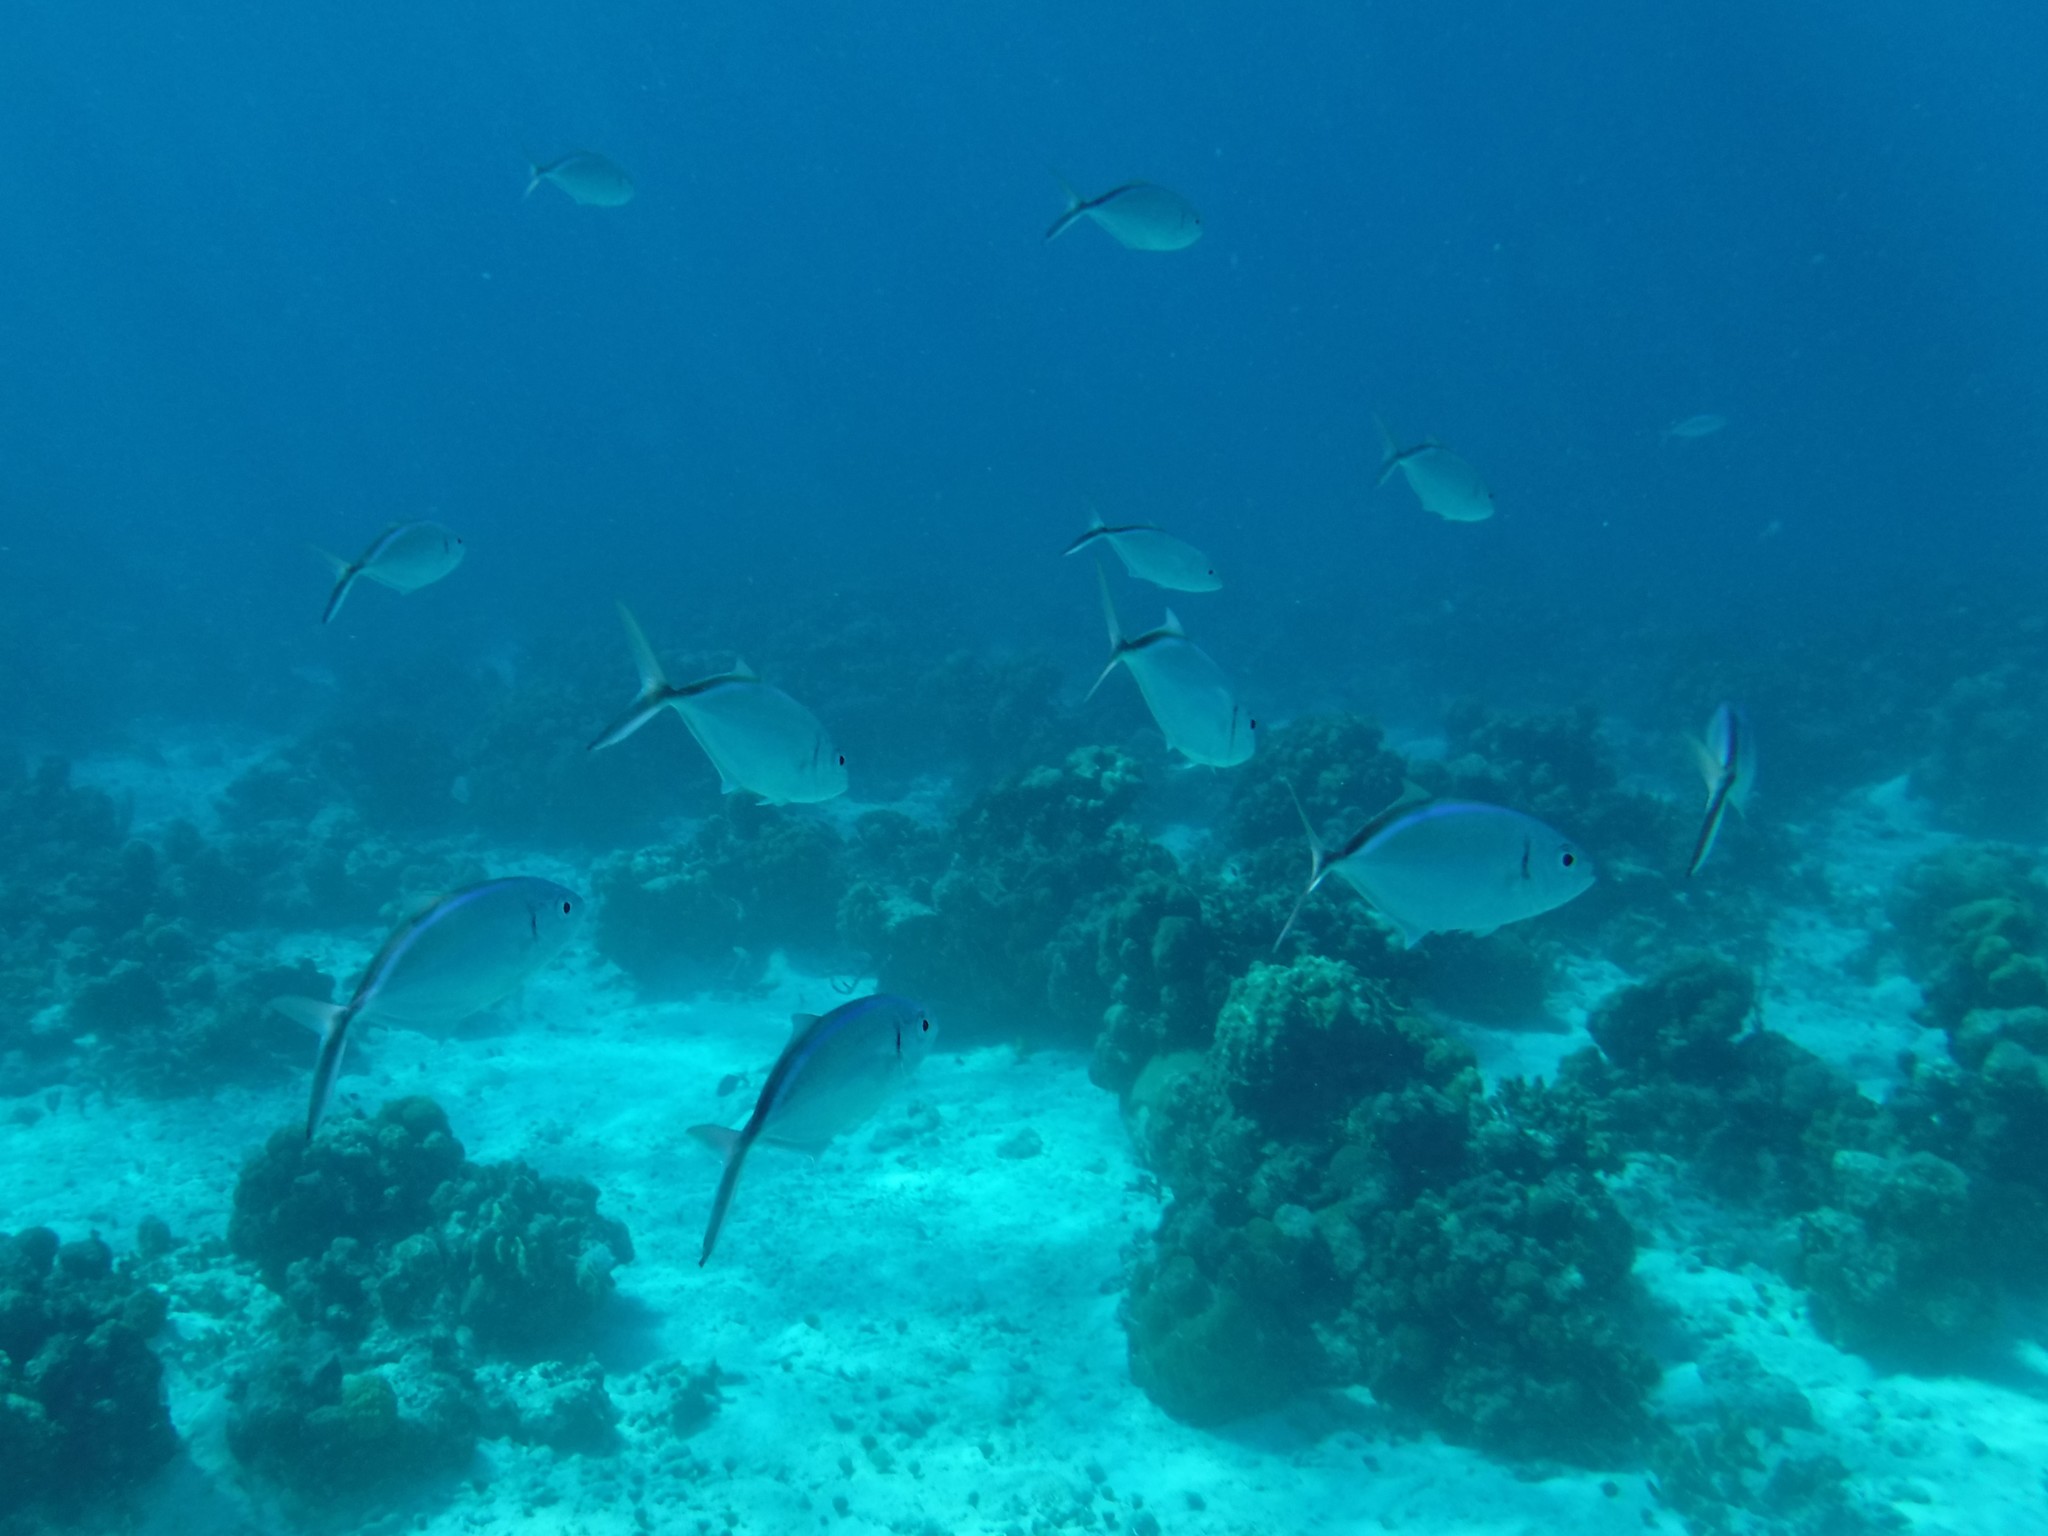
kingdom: Animalia
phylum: Chordata
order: Perciformes
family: Carangidae
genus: Caranx
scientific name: Caranx ruber
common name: Bar jack
